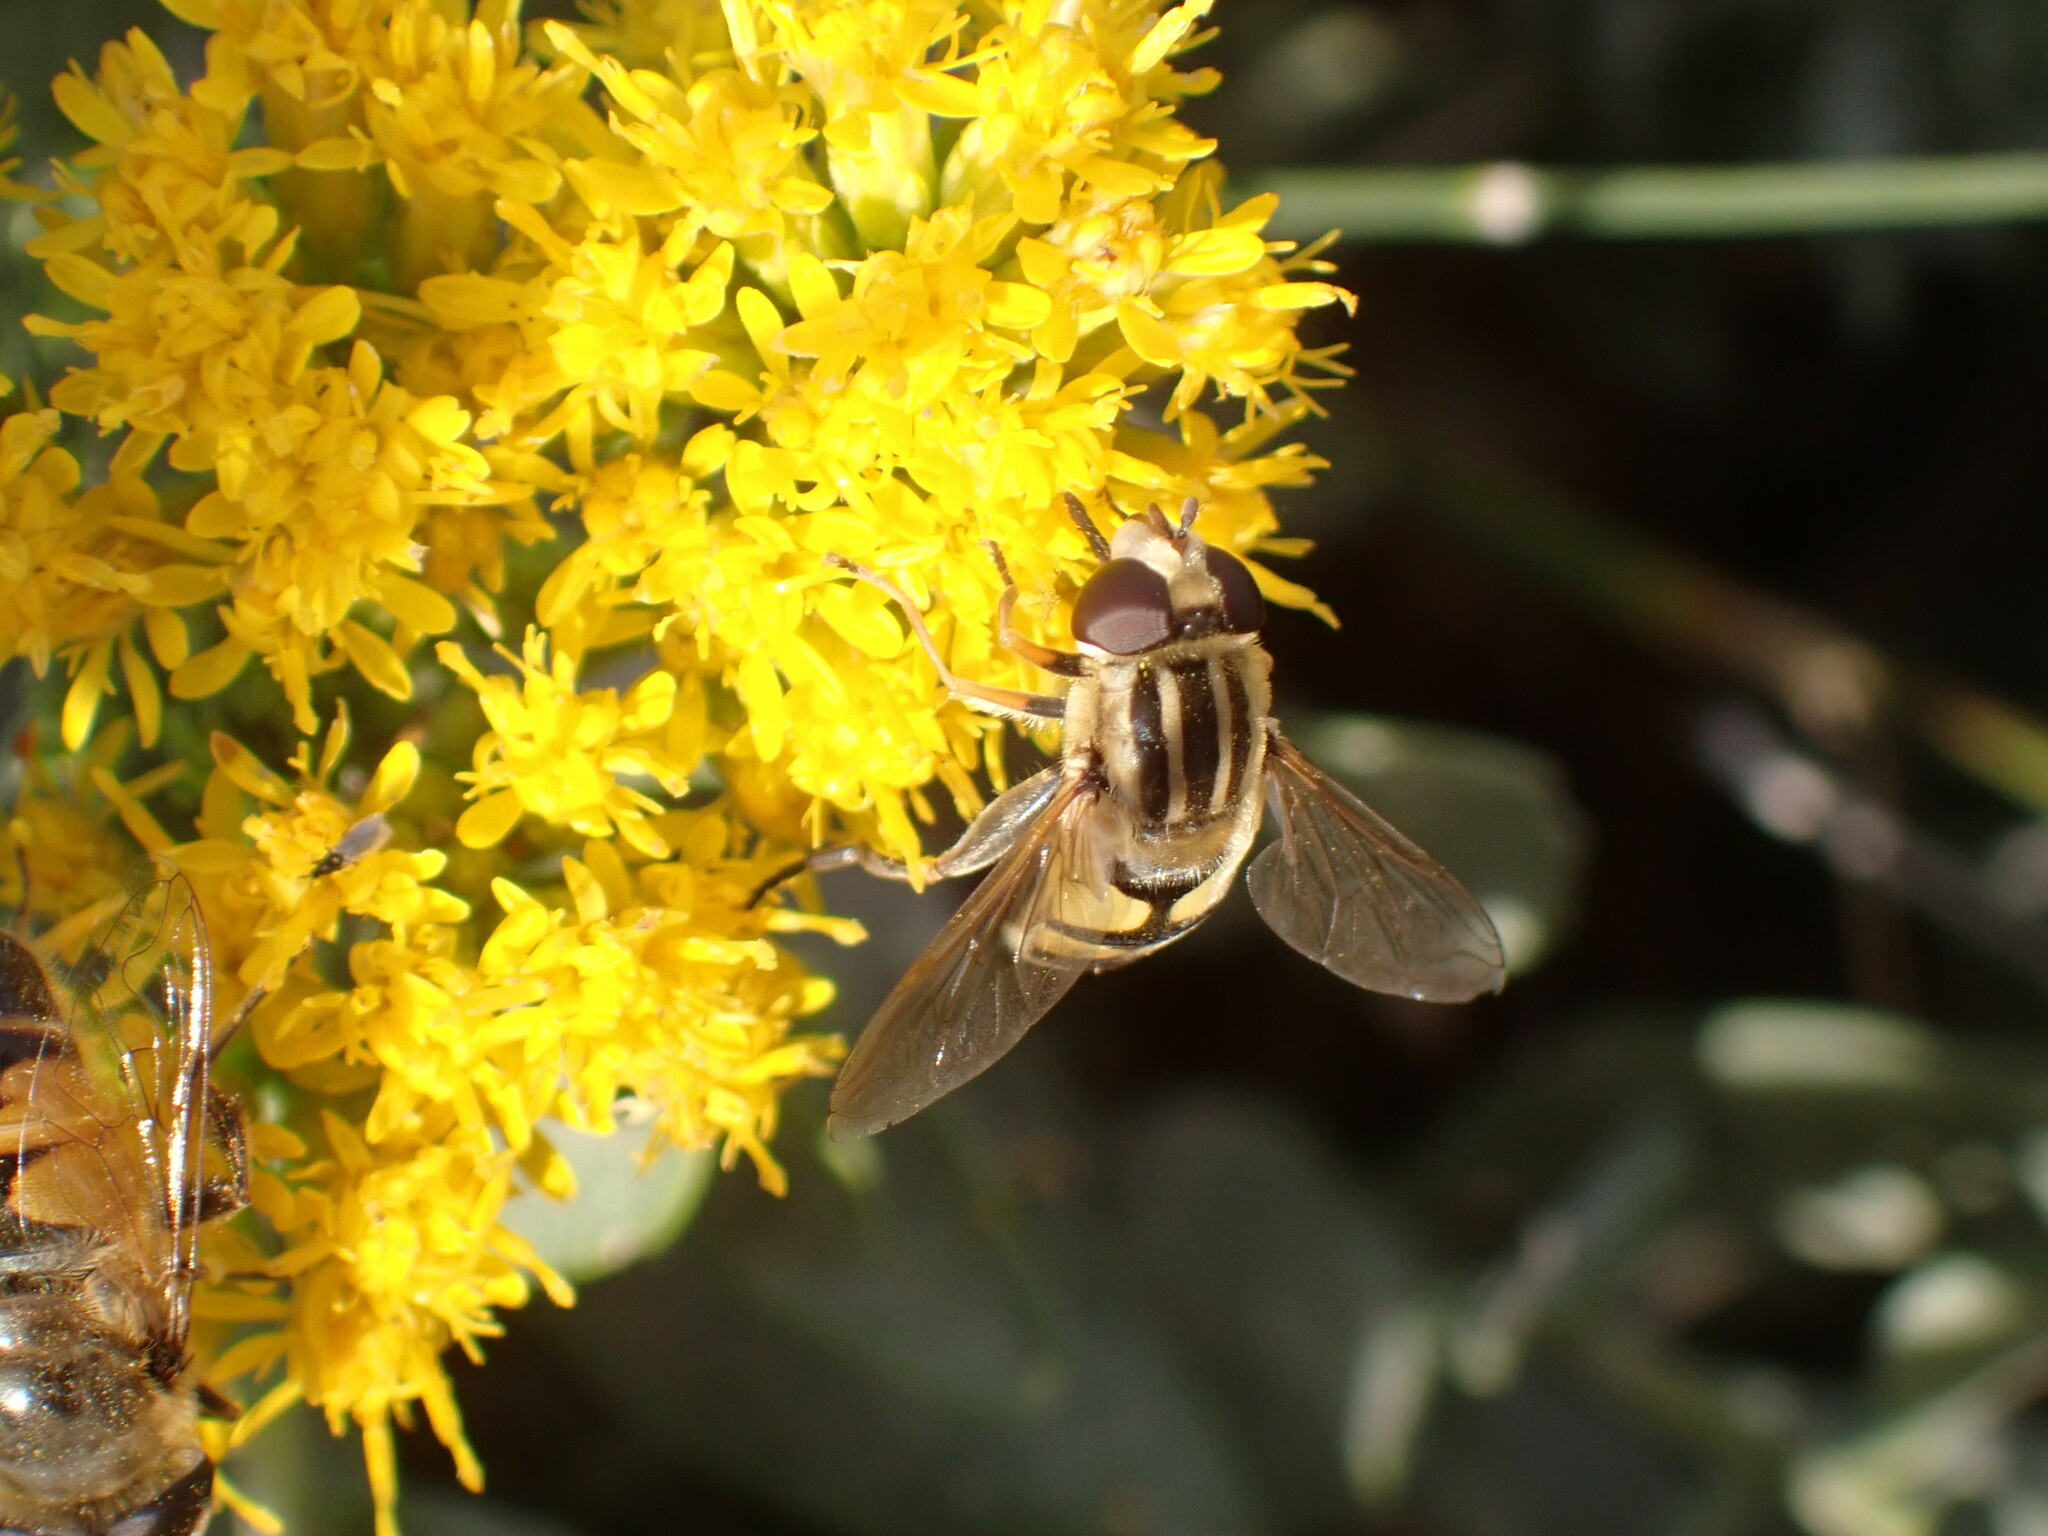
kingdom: Animalia
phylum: Arthropoda
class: Insecta
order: Diptera
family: Syrphidae
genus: Helophilus
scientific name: Helophilus latifrons
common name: Broad-headed marsh fly
